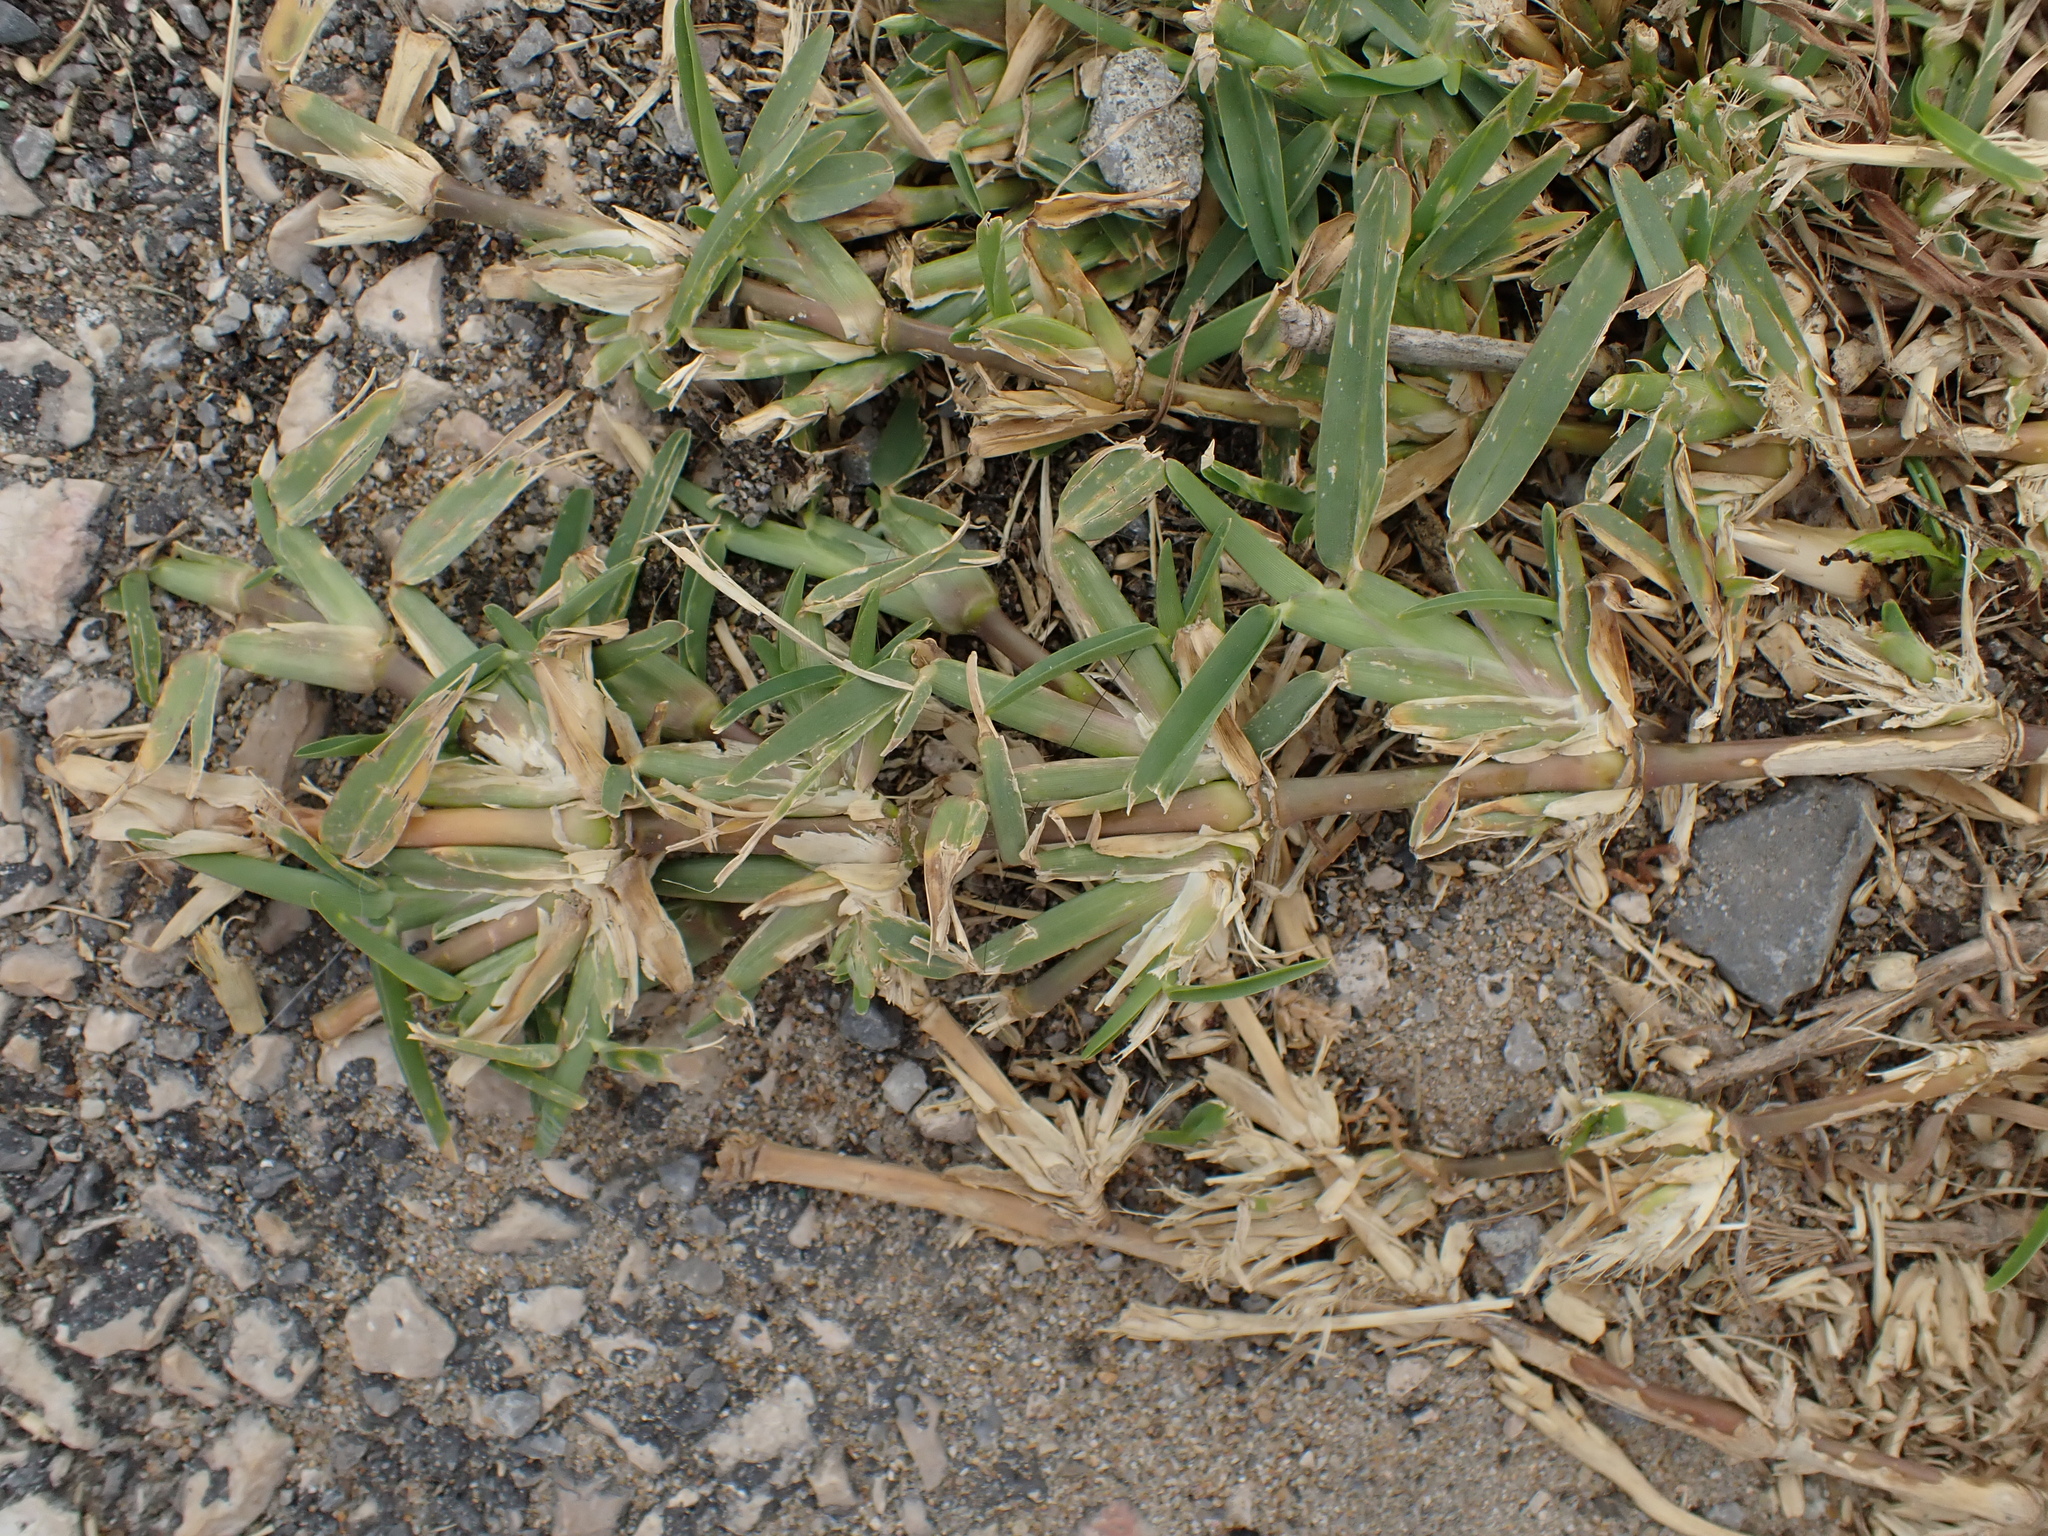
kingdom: Plantae
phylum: Tracheophyta
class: Liliopsida
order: Poales
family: Poaceae
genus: Stenotaphrum
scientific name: Stenotaphrum secundatum
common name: St. augustine grass
